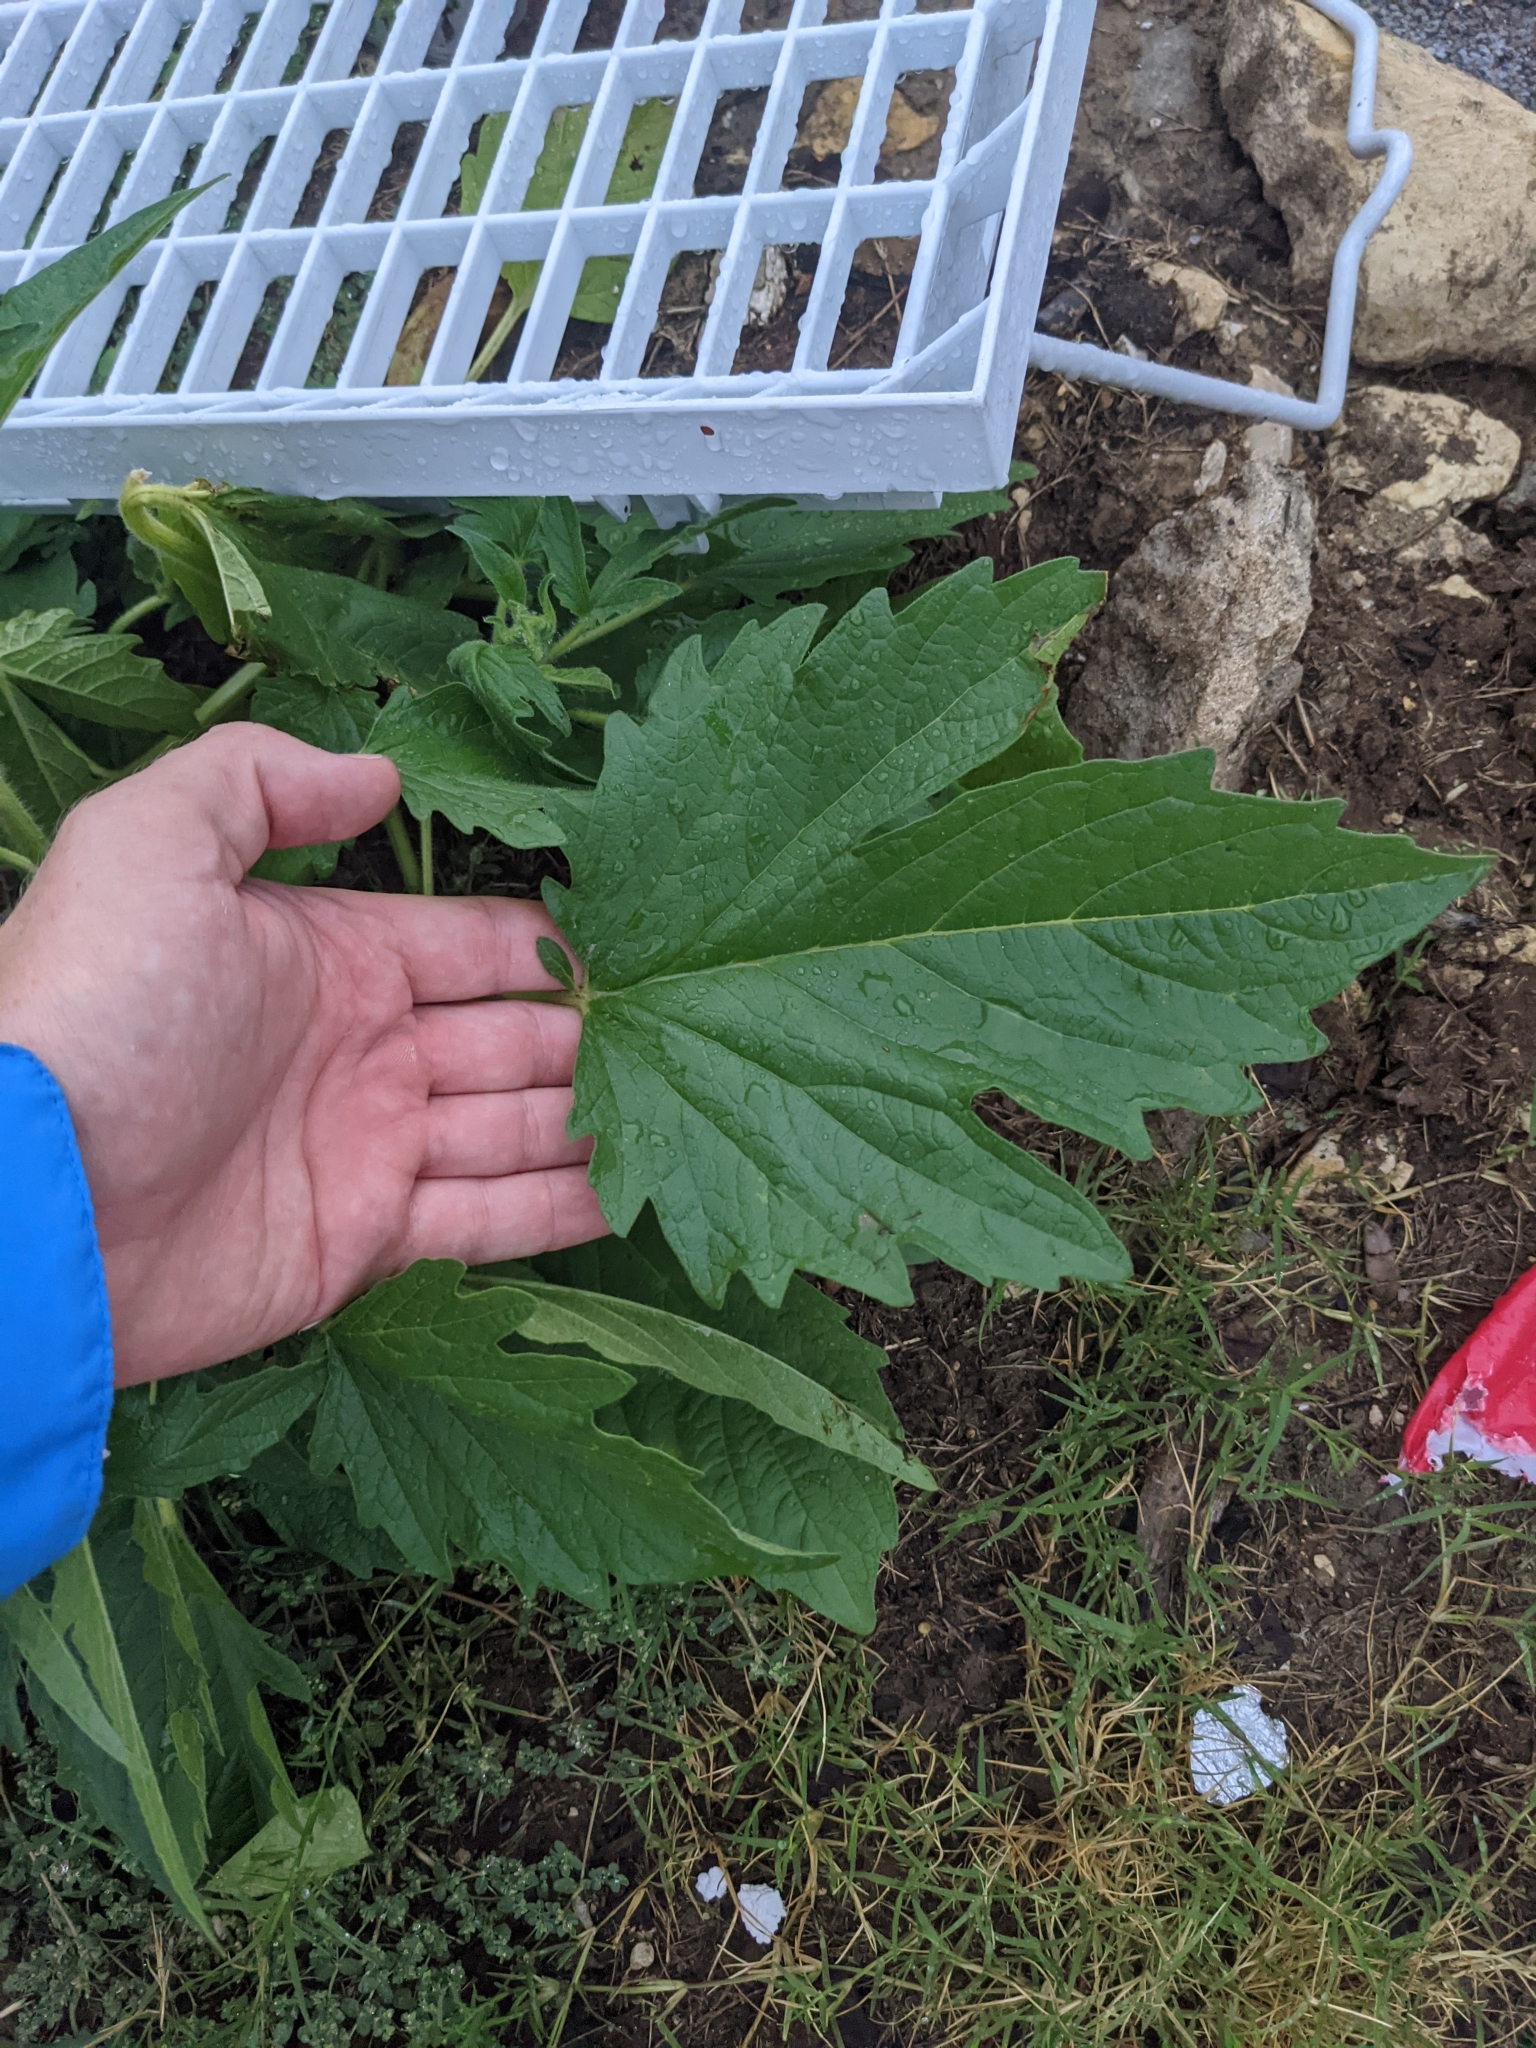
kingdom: Plantae
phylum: Tracheophyta
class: Magnoliopsida
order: Lamiales
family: Pedaliaceae
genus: Sesamum
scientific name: Sesamum indicum
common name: Sesame
